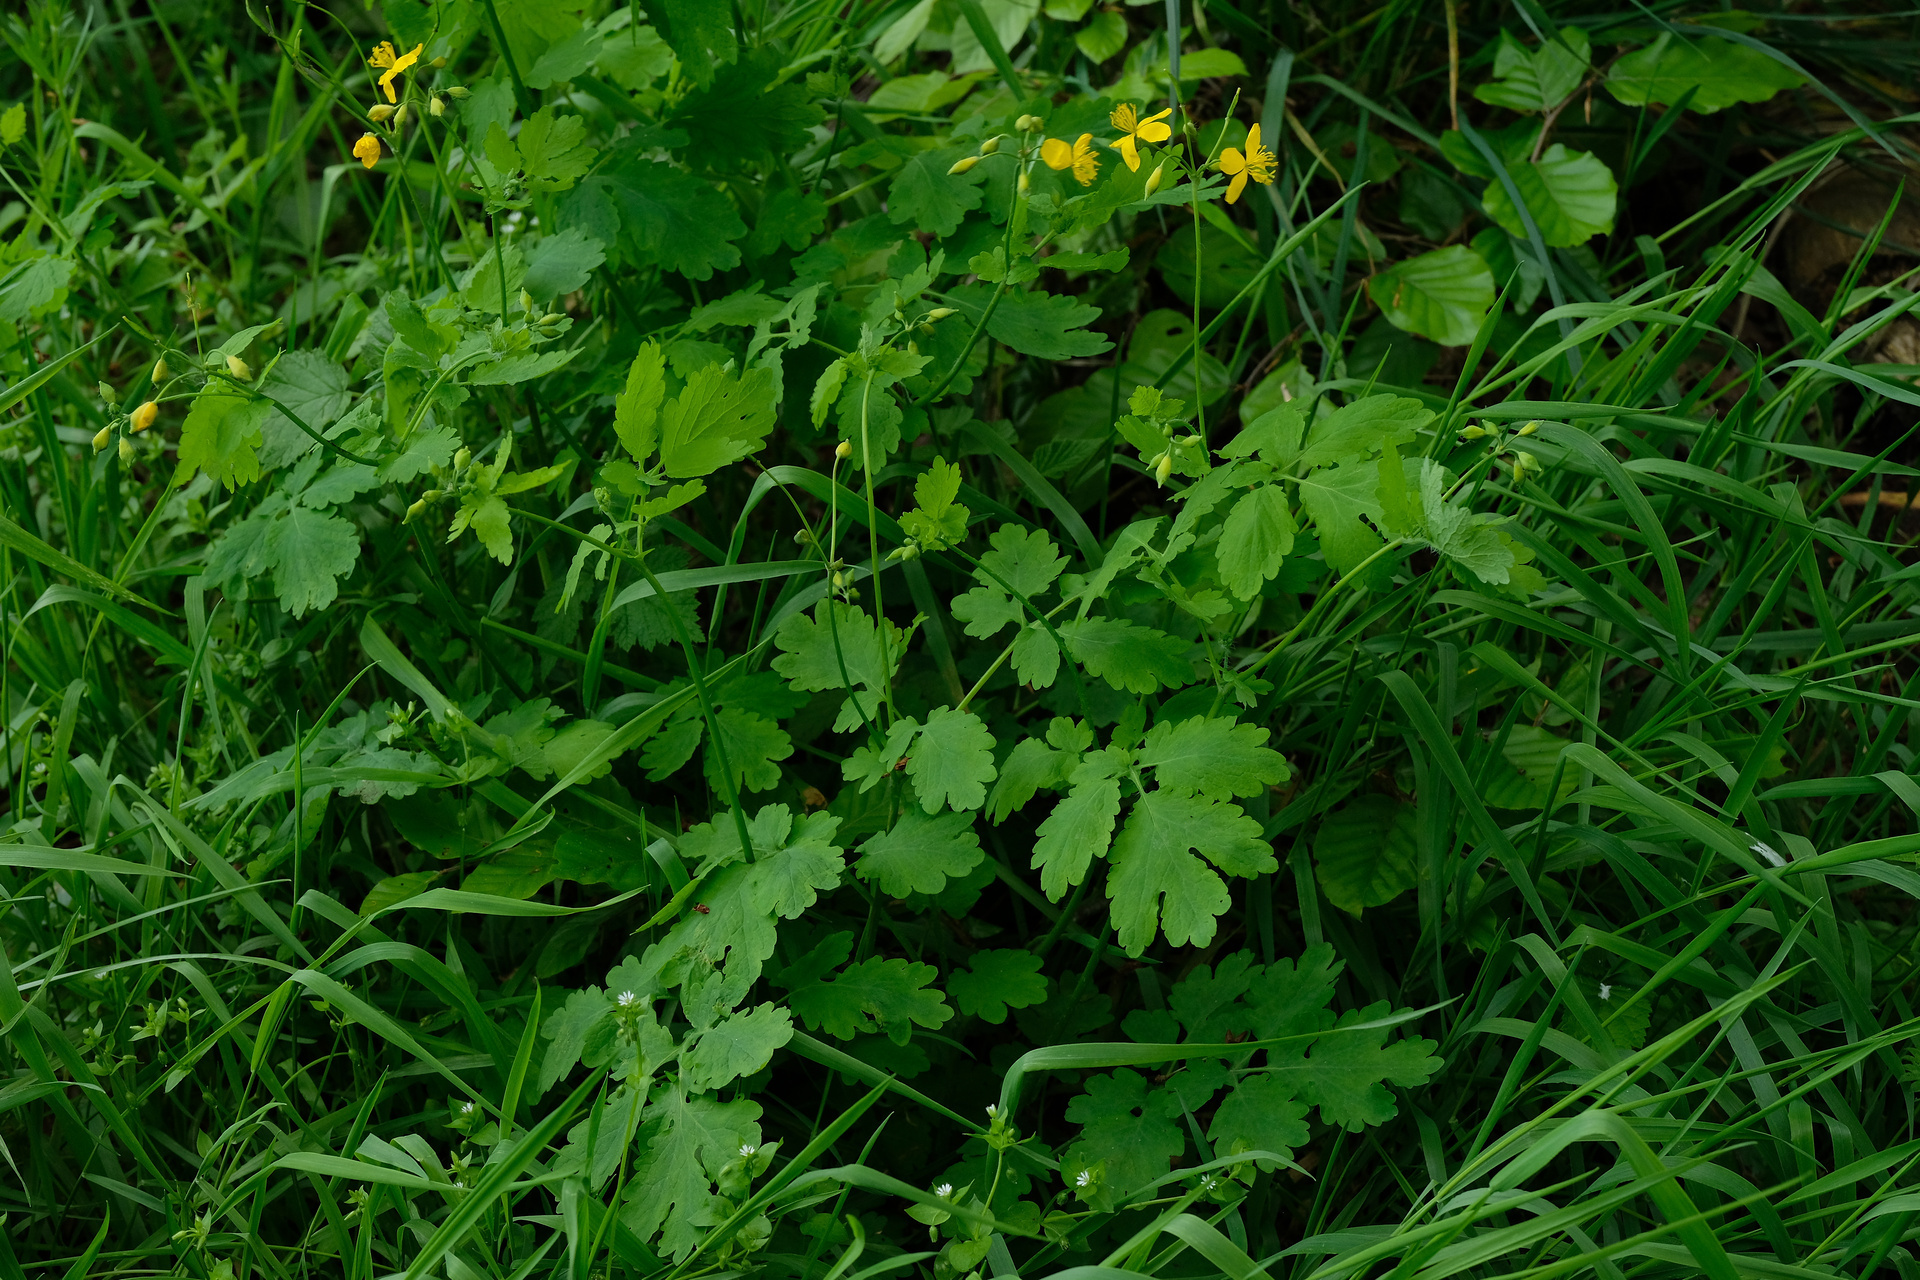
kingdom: Plantae
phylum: Tracheophyta
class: Magnoliopsida
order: Ranunculales
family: Papaveraceae
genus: Chelidonium
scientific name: Chelidonium majus
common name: Greater celandine
